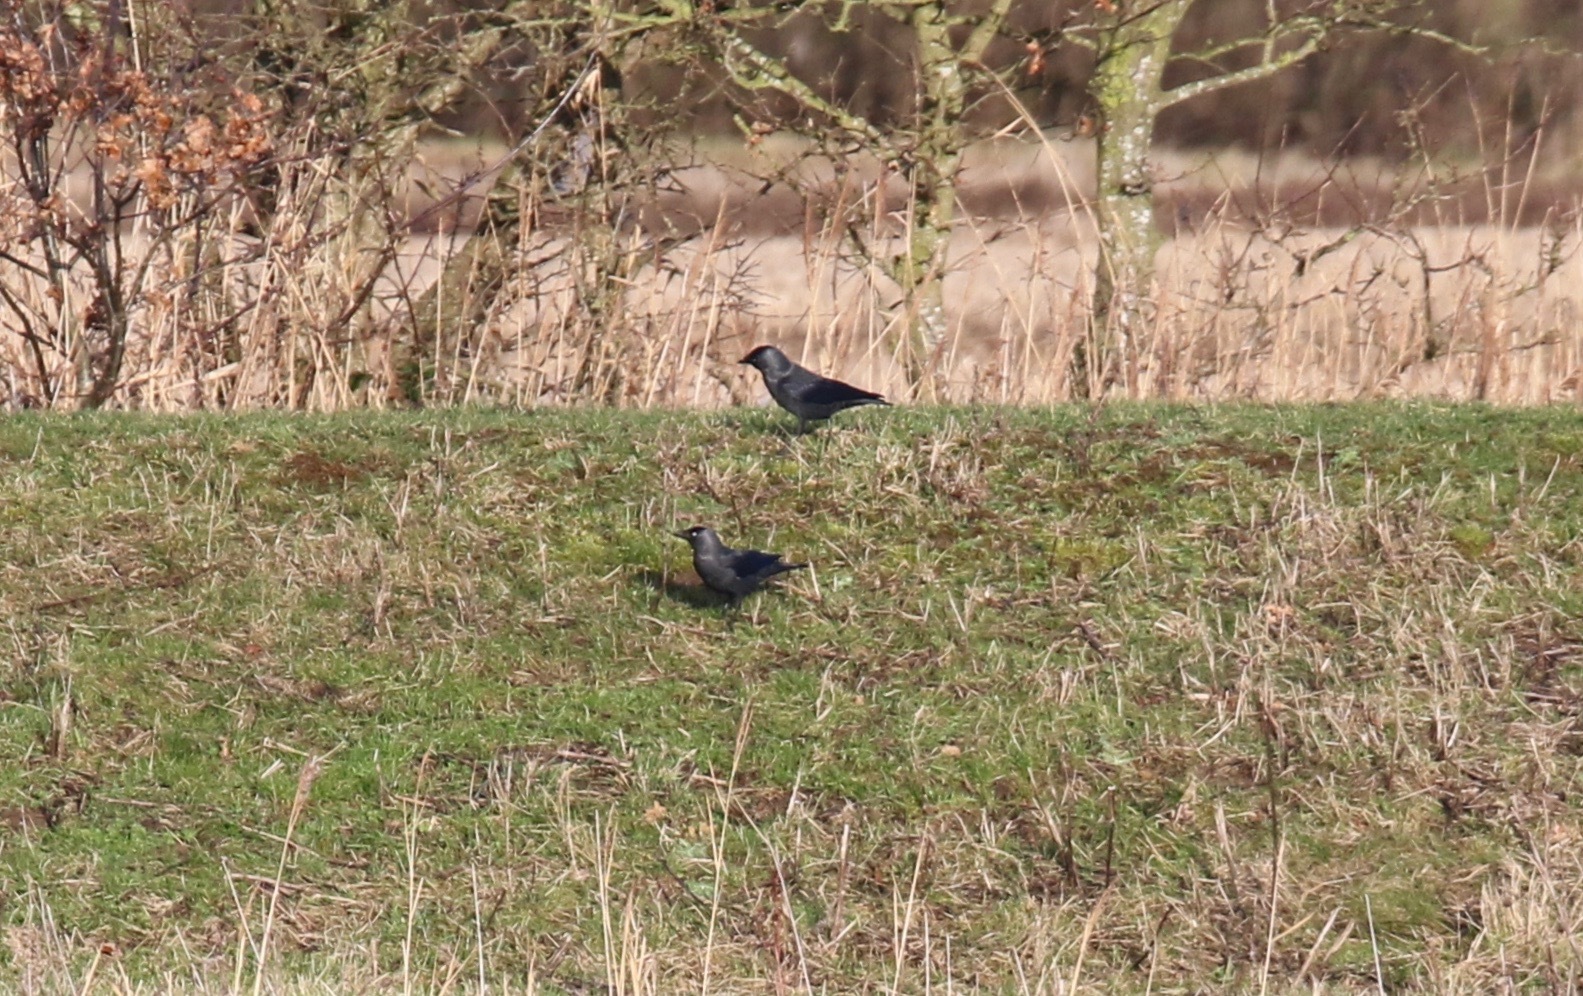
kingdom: Animalia
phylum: Chordata
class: Aves
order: Passeriformes
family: Corvidae
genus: Coloeus
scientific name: Coloeus monedula
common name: Western jackdaw
